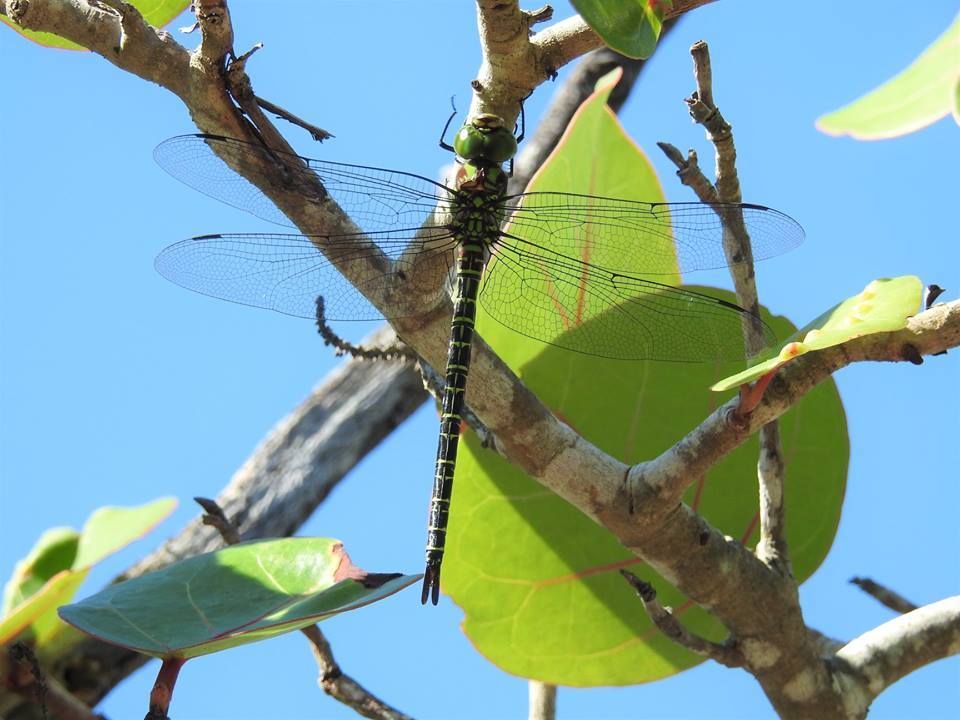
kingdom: Animalia
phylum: Arthropoda
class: Insecta
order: Odonata
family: Aeshnidae
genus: Coryphaeschna
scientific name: Coryphaeschna ingens
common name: Regal darner
